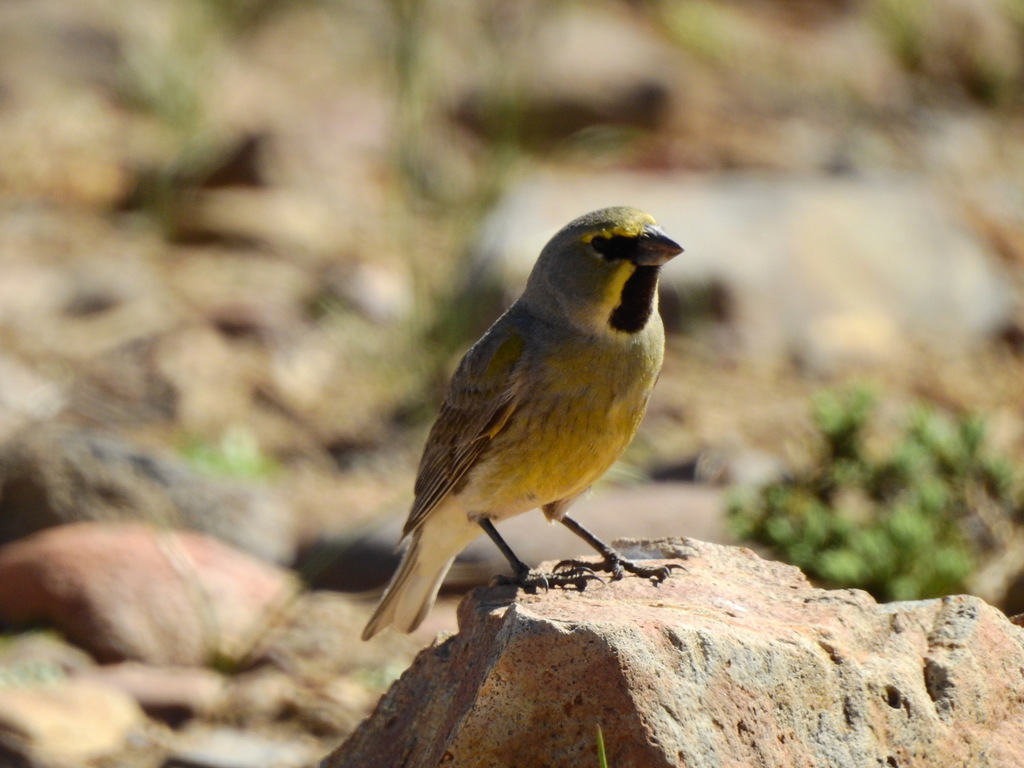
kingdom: Animalia
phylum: Chordata
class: Aves
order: Passeriformes
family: Thraupidae
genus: Melanodera
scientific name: Melanodera xanthogramma
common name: Yellow-bridled finch
